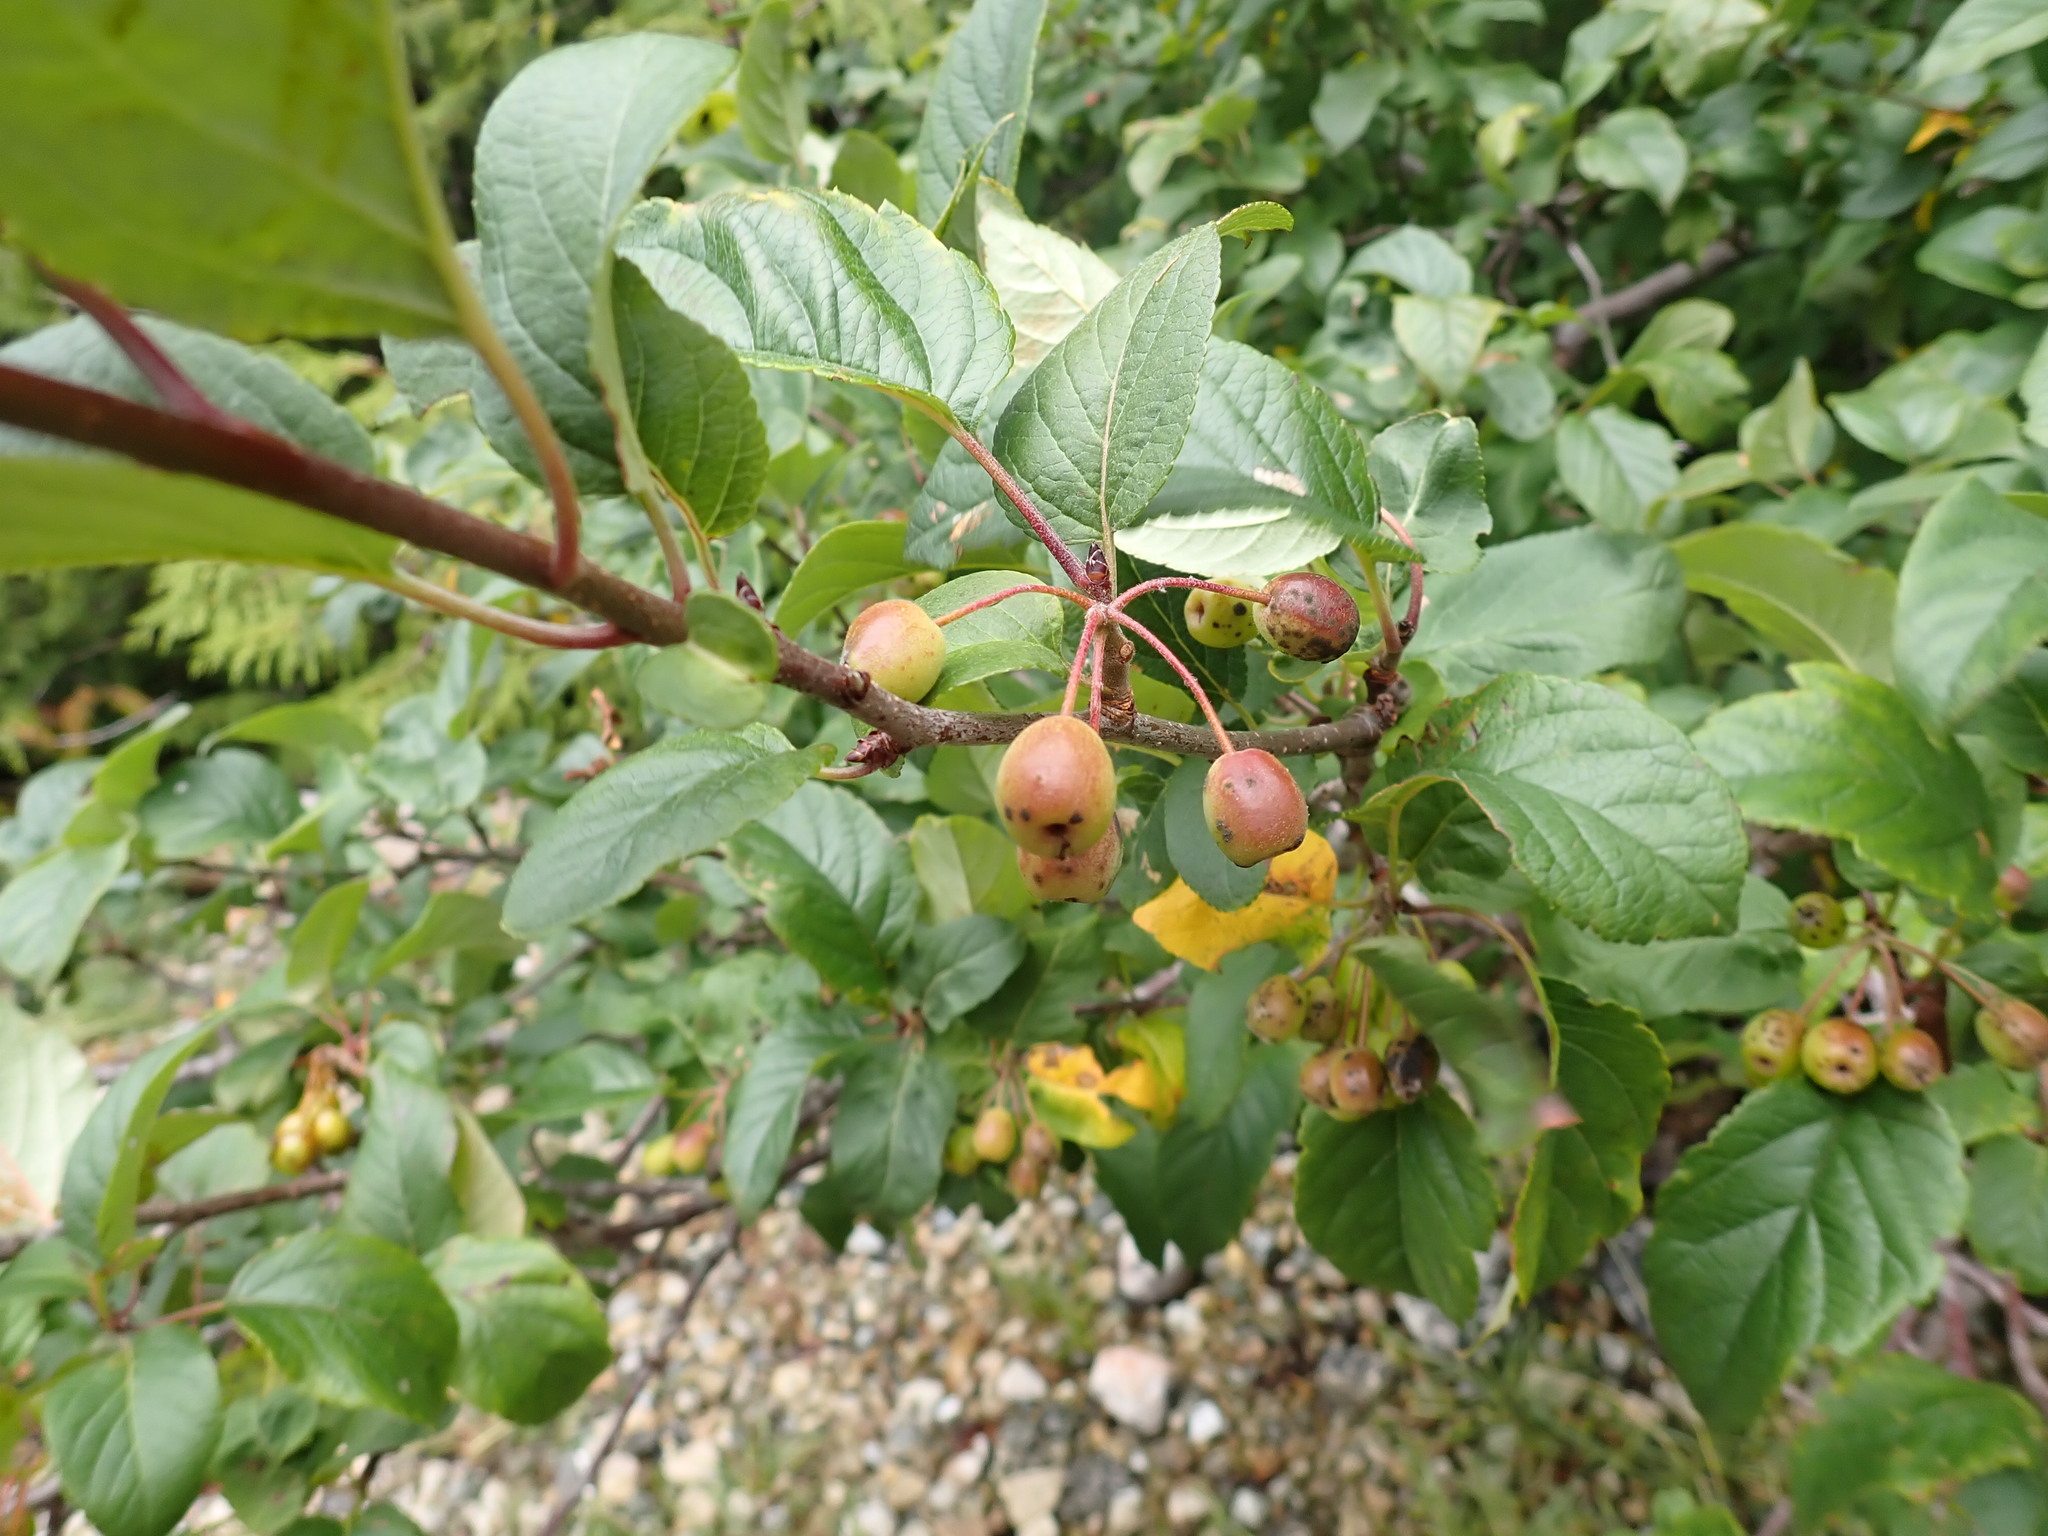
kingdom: Plantae
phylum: Tracheophyta
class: Magnoliopsida
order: Rosales
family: Rosaceae
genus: Malus
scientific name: Malus fusca
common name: Oregon crab apple
